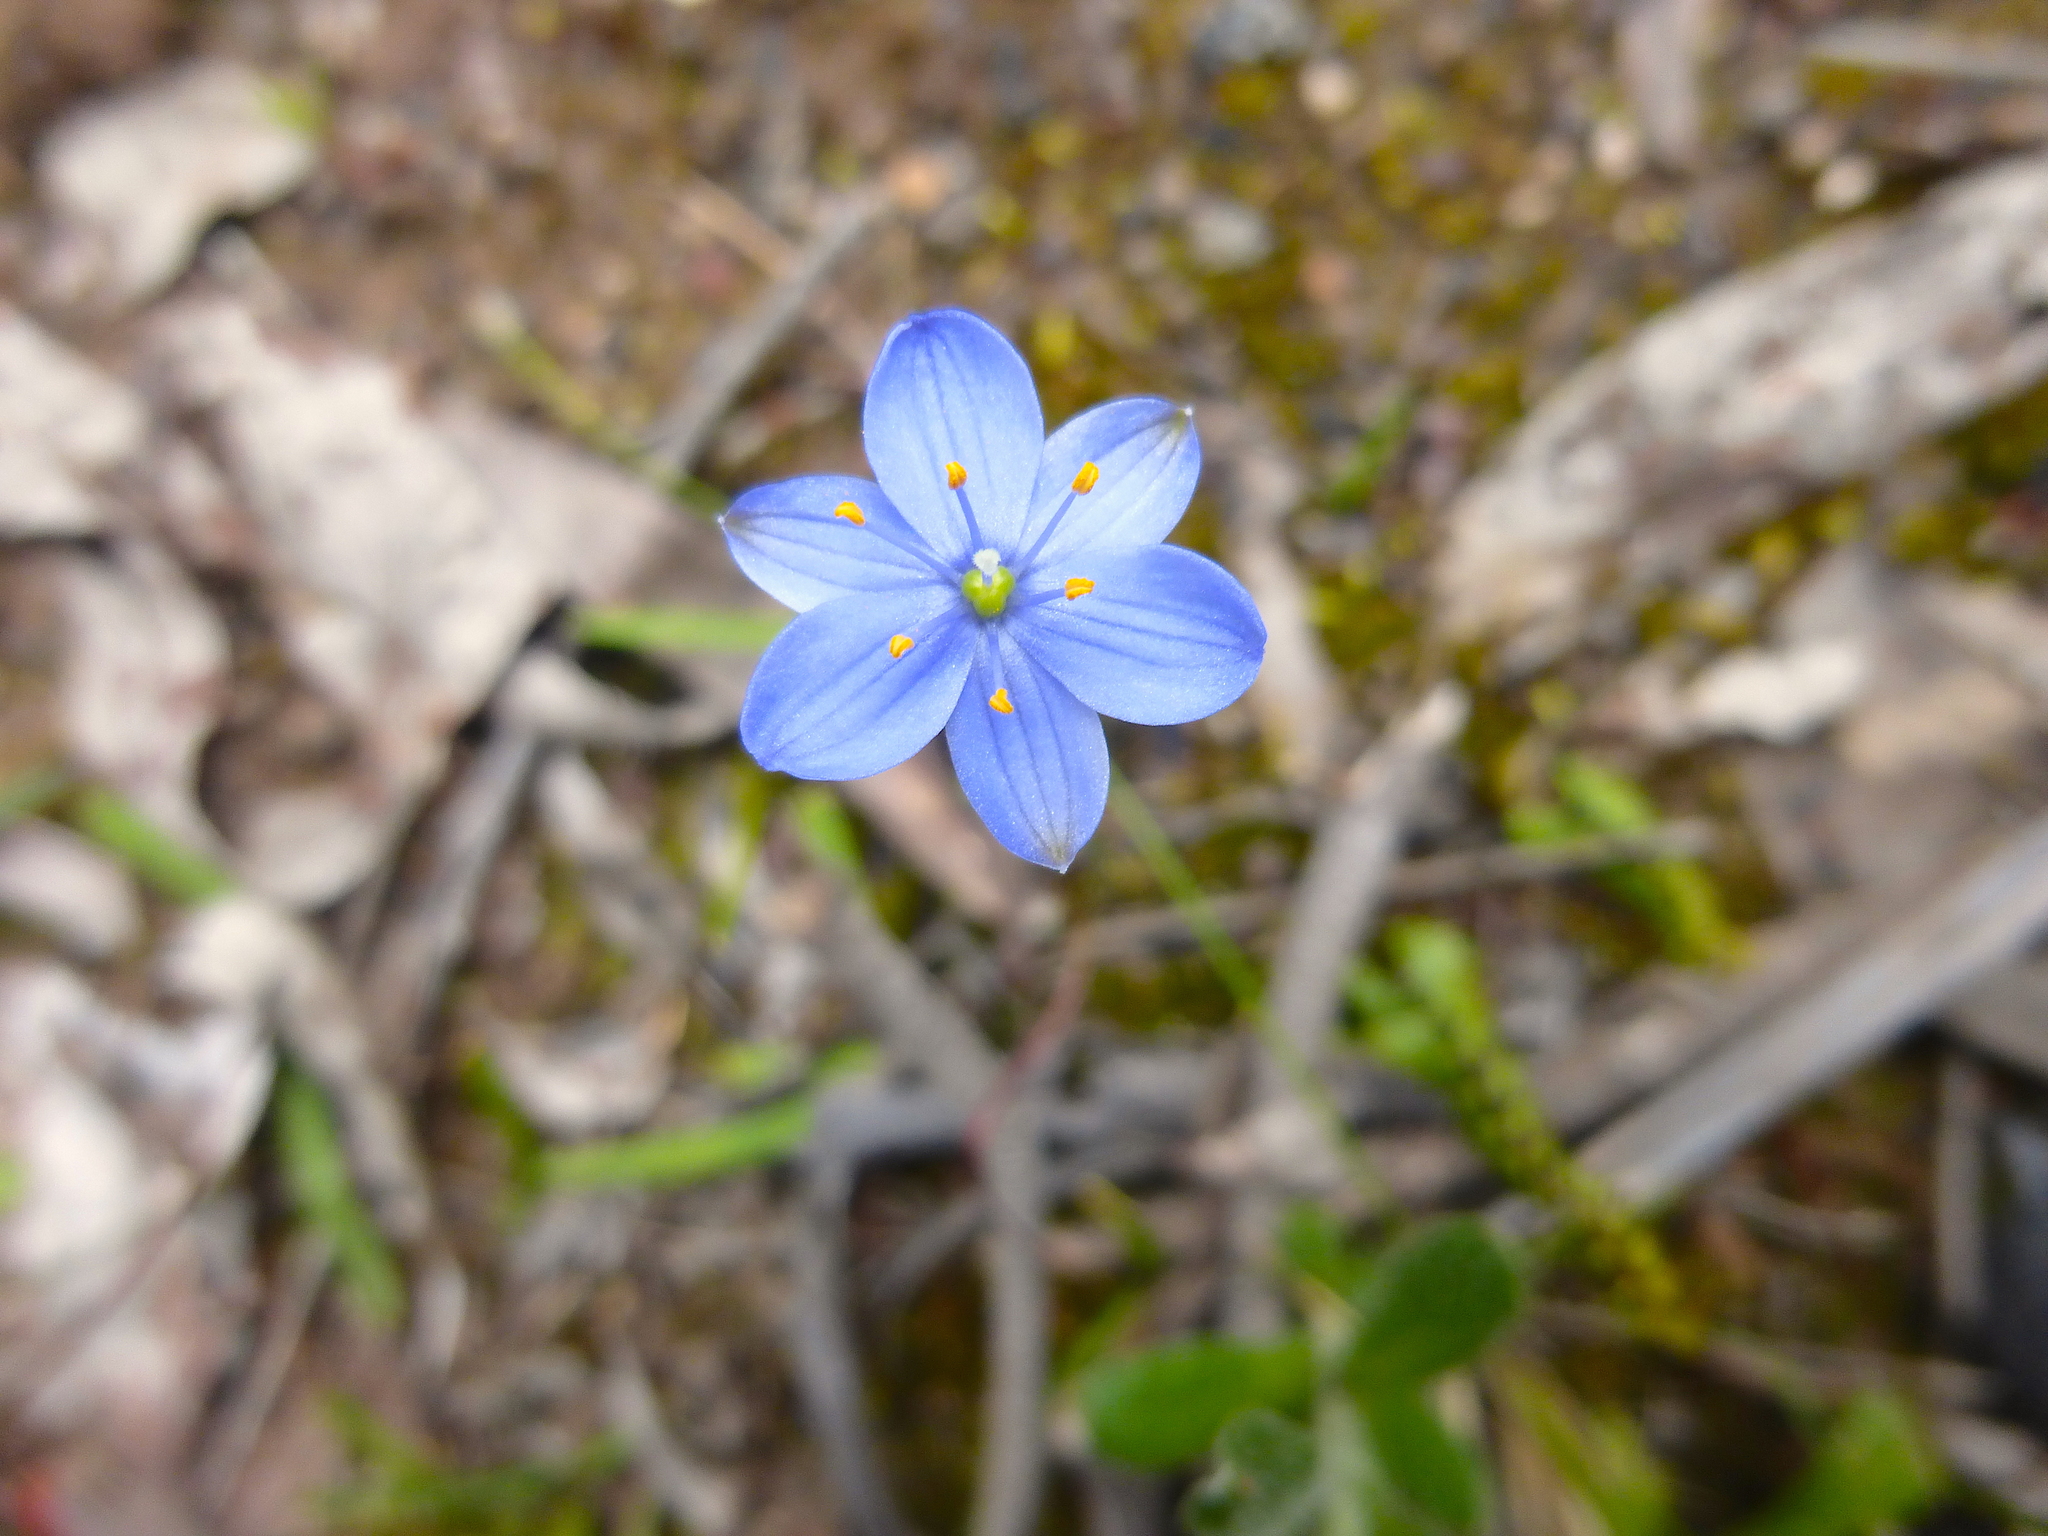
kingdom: Plantae
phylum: Tracheophyta
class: Liliopsida
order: Asparagales
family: Asphodelaceae
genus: Chamaescilla
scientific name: Chamaescilla corymbosa
